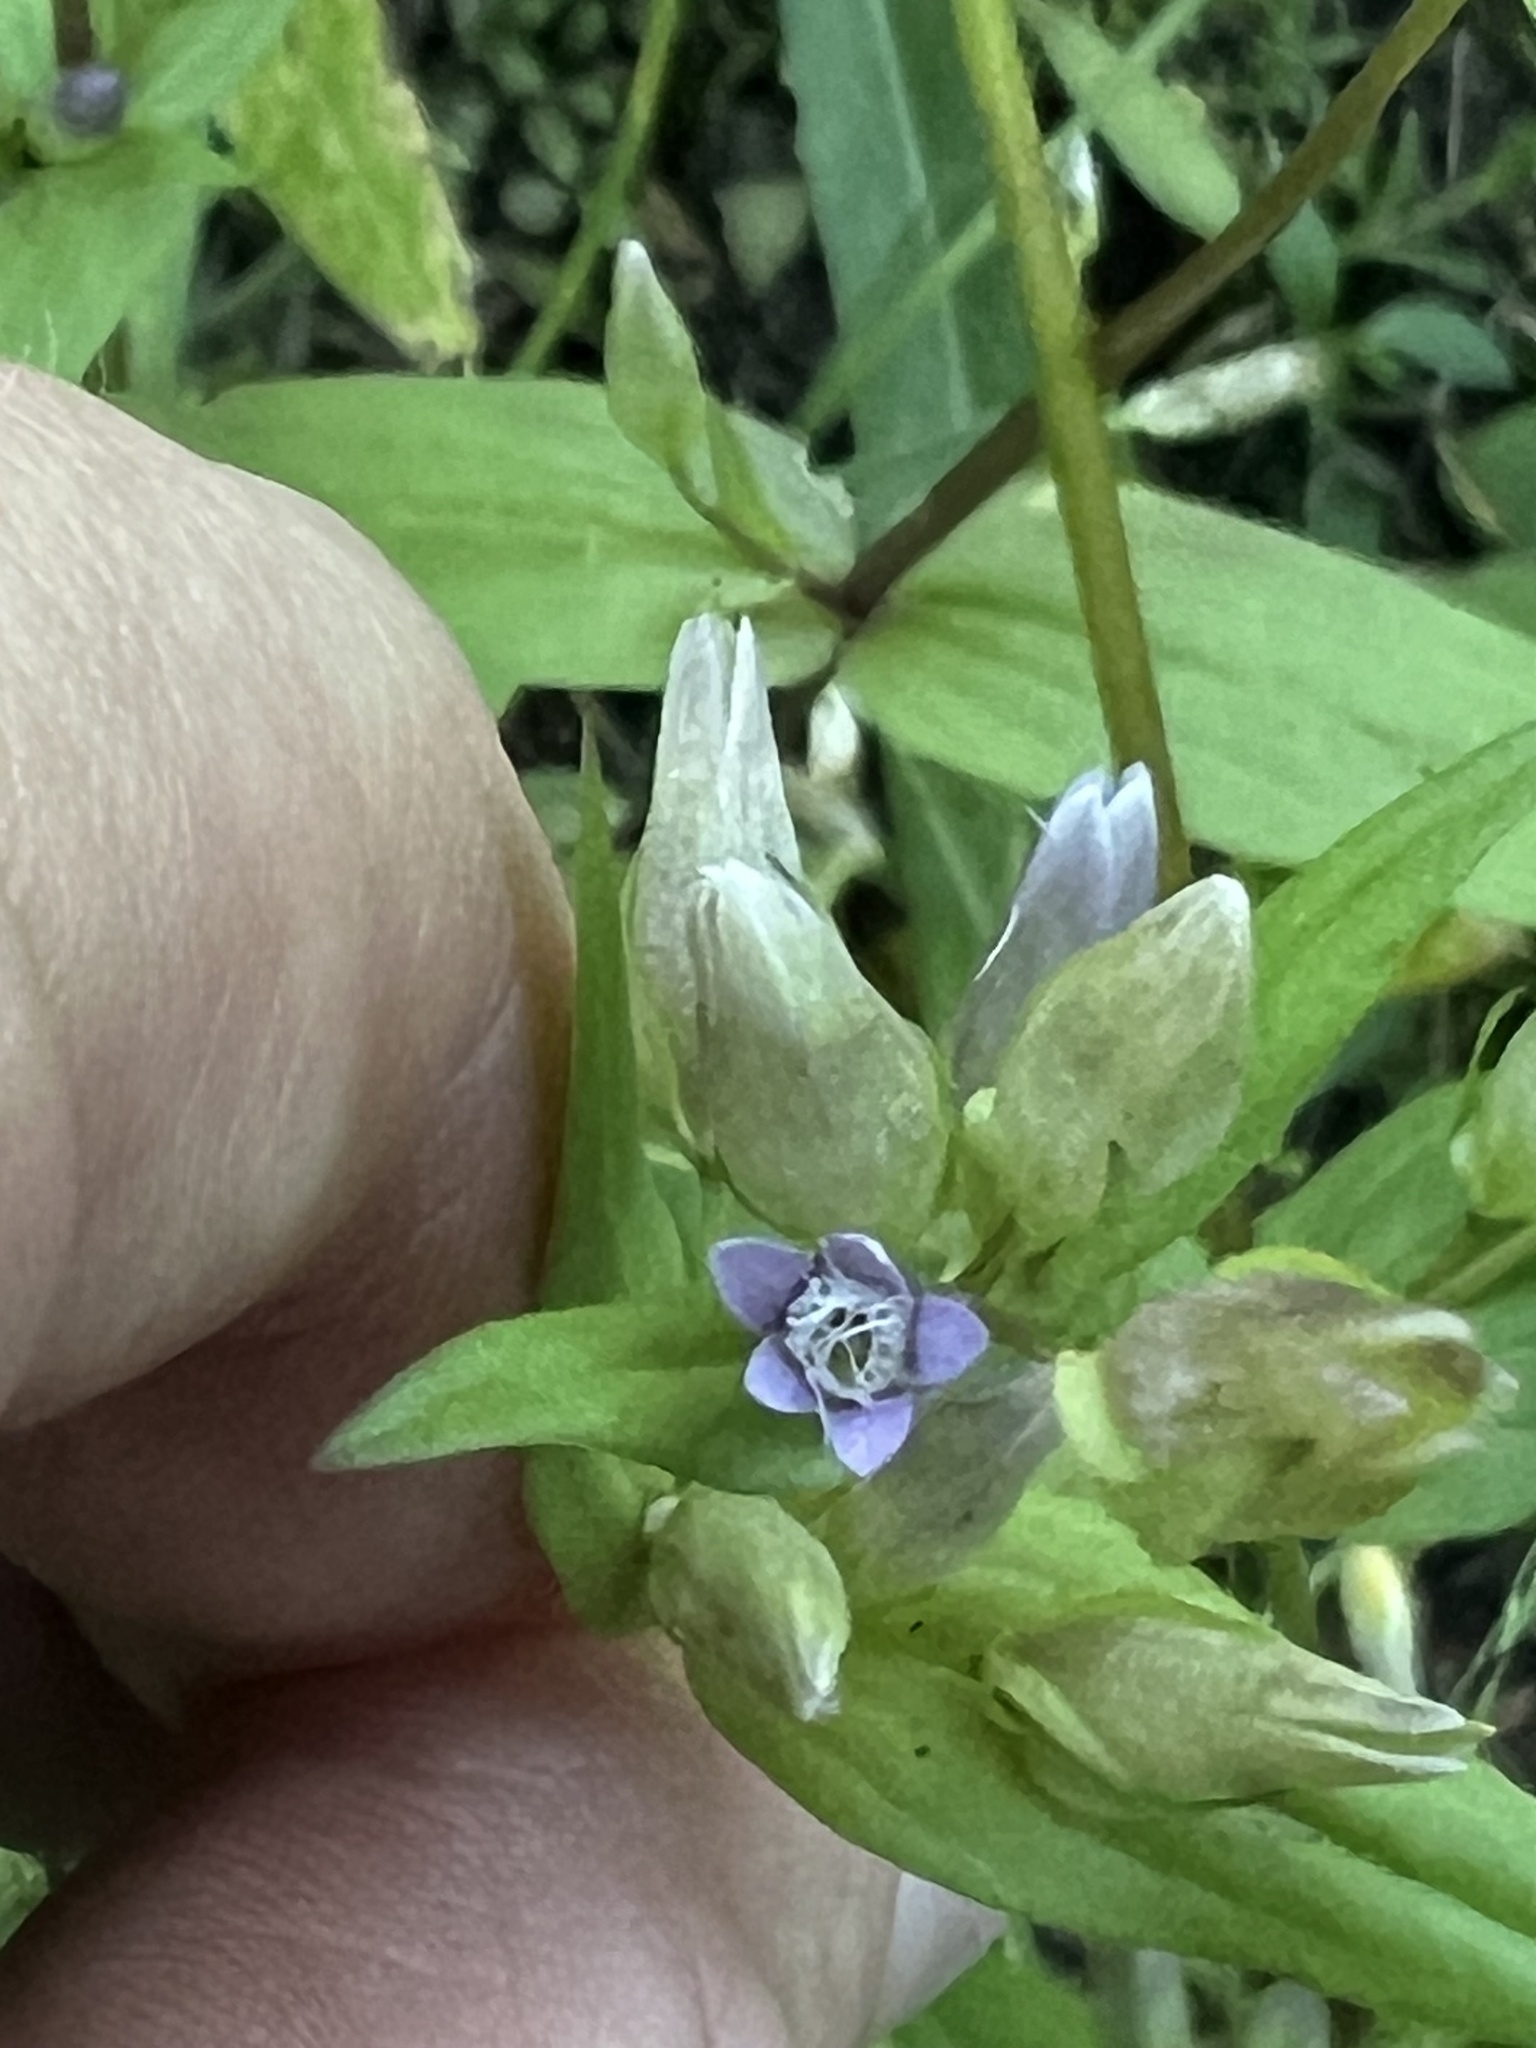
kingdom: Plantae
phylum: Tracheophyta
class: Magnoliopsida
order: Gentianales
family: Gentianaceae
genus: Gentianella
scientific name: Gentianella amarella
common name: Autumn gentian
